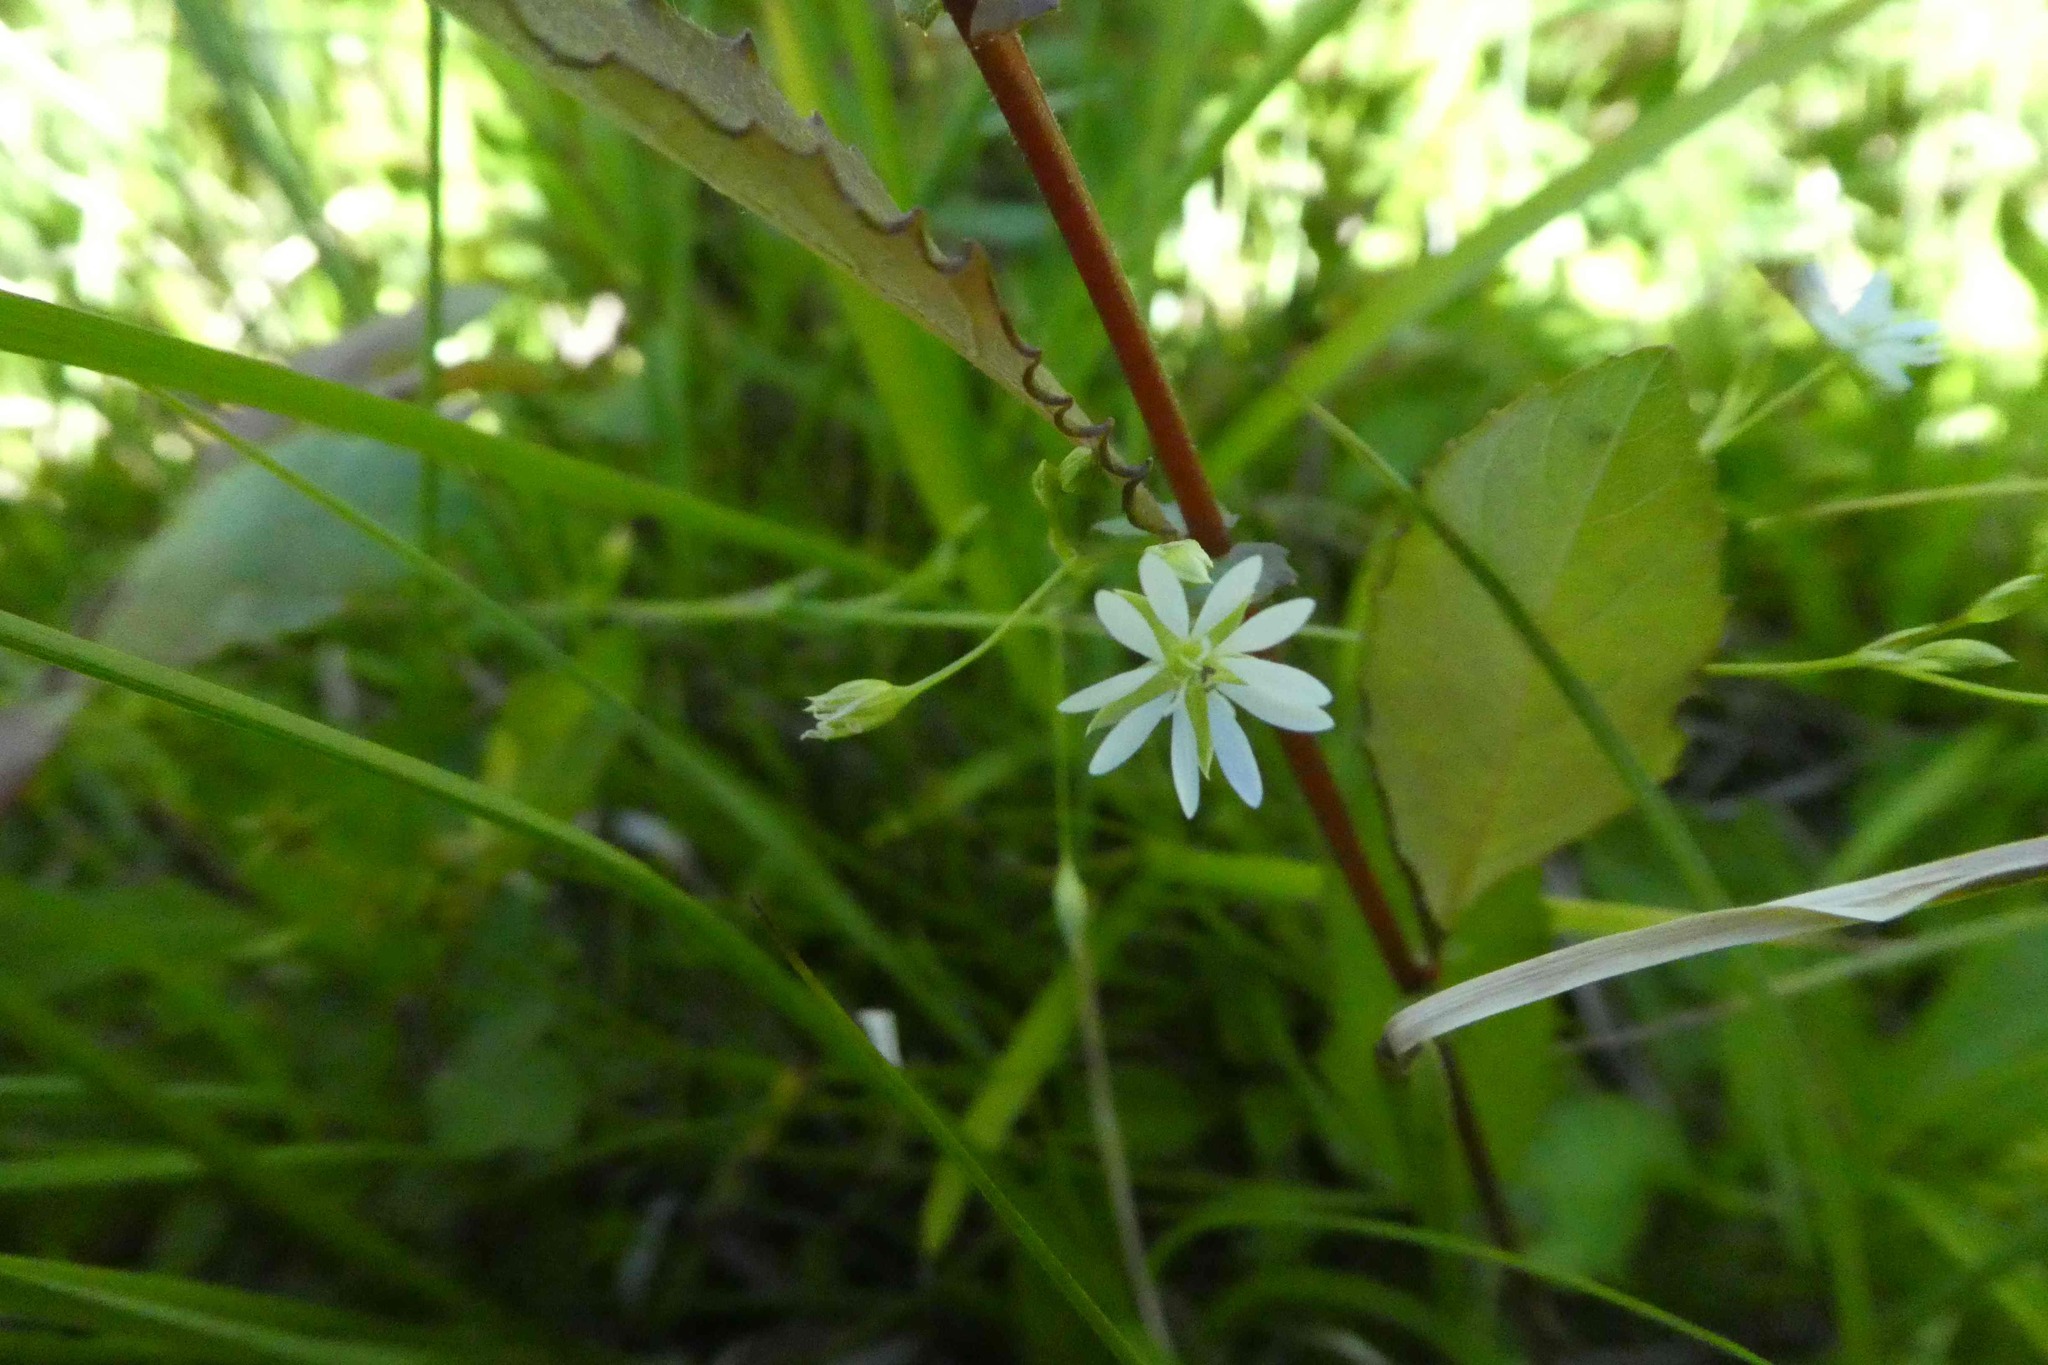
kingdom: Plantae
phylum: Tracheophyta
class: Magnoliopsida
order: Caryophyllales
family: Caryophyllaceae
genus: Stellaria
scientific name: Stellaria alsine
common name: Bog stitchwort
